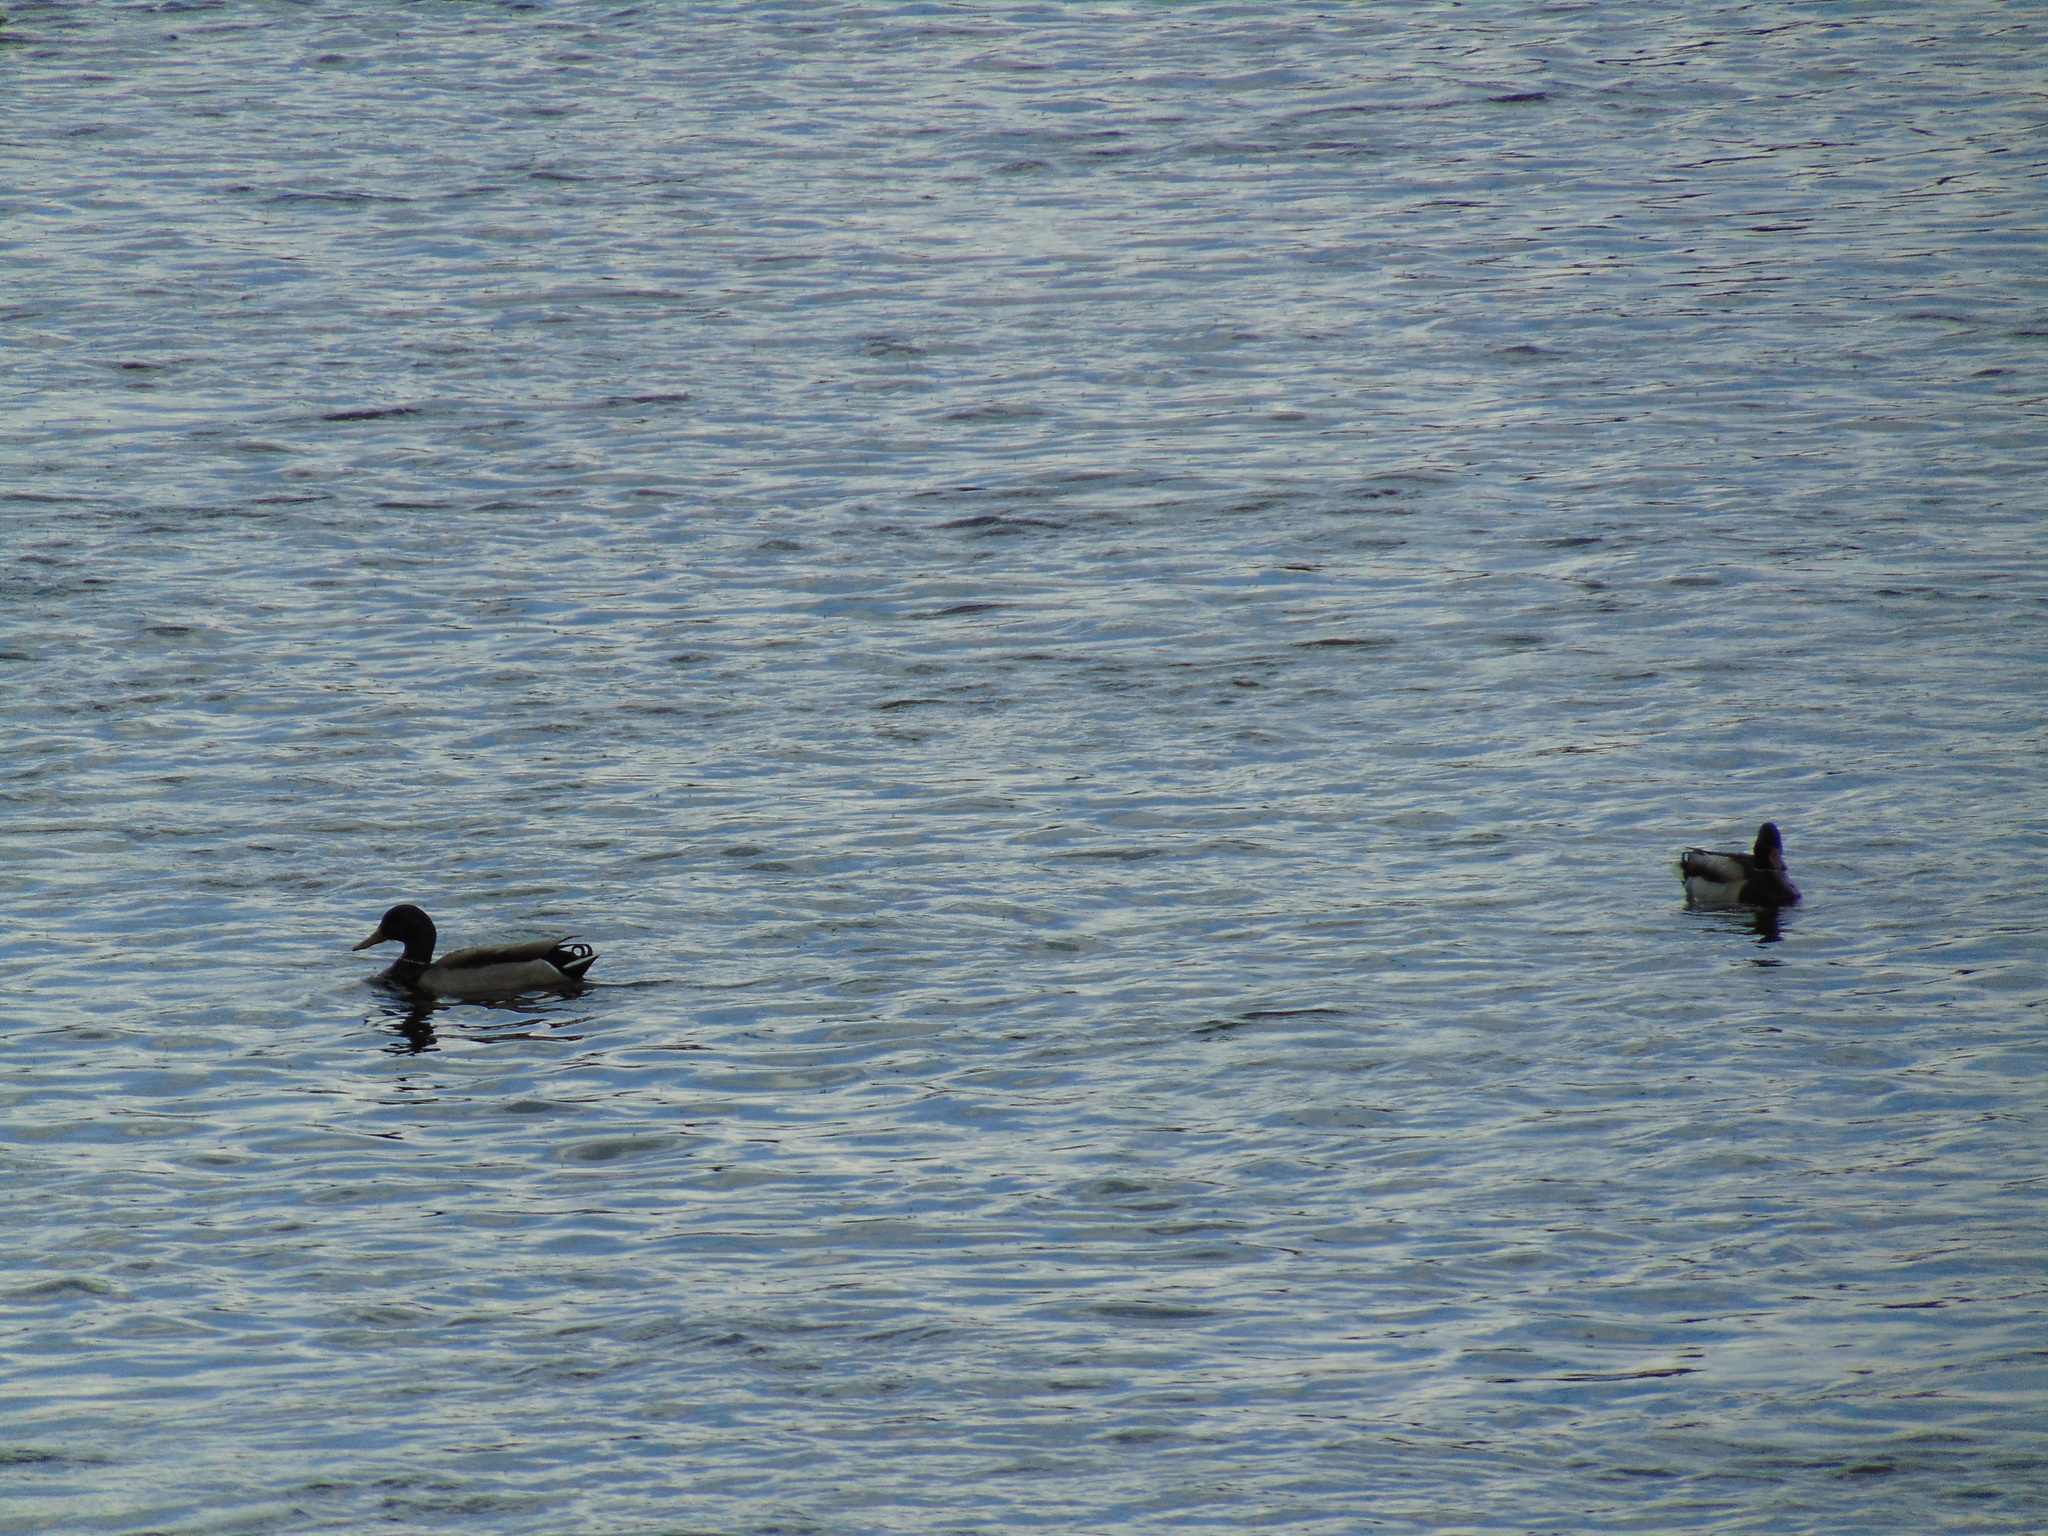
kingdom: Animalia
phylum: Chordata
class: Aves
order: Anseriformes
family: Anatidae
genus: Anas
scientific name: Anas platyrhynchos
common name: Mallard
